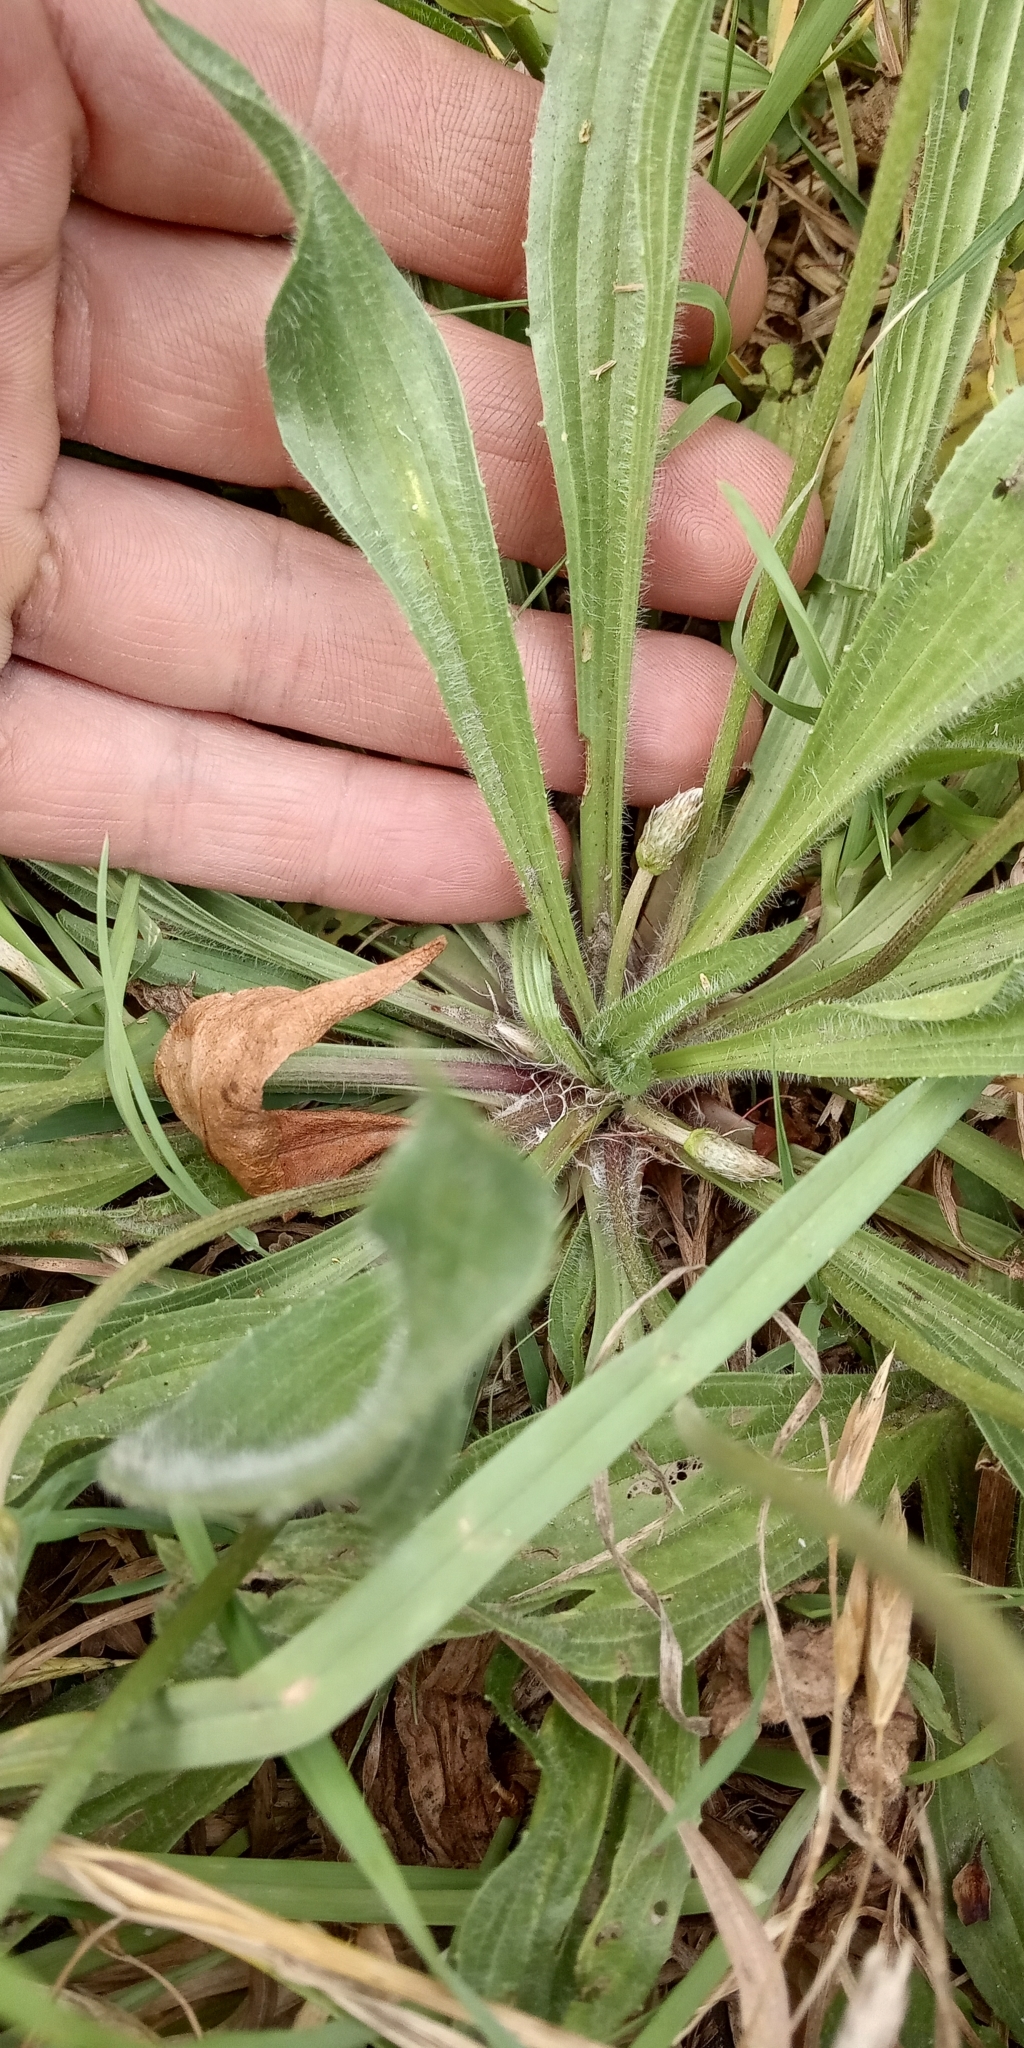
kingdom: Plantae
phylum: Tracheophyta
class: Magnoliopsida
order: Lamiales
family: Plantaginaceae
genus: Plantago
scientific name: Plantago lanceolata
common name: Ribwort plantain
